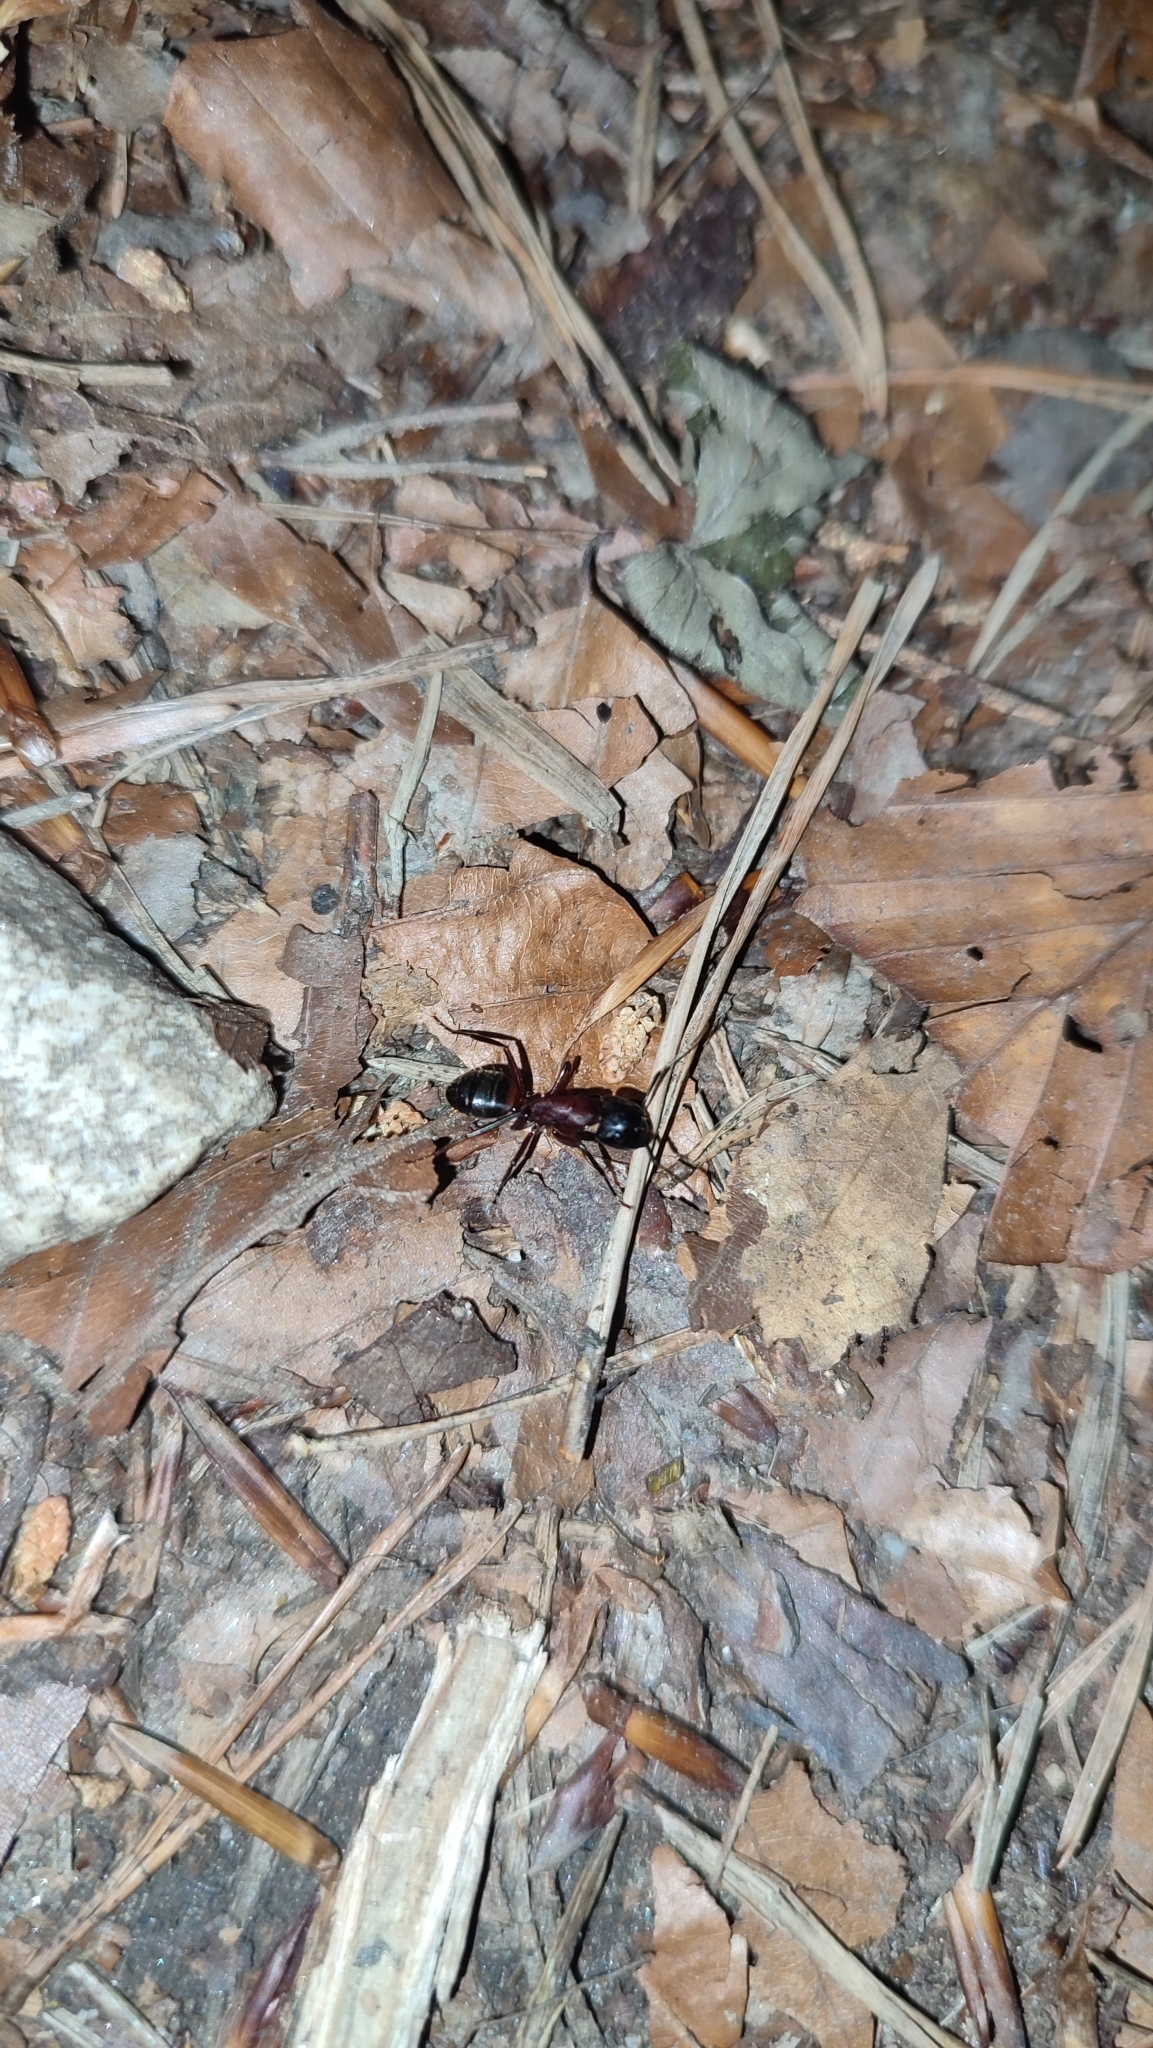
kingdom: Animalia
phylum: Arthropoda
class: Insecta
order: Hymenoptera
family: Formicidae
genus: Camponotus
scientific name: Camponotus ligniperdus
